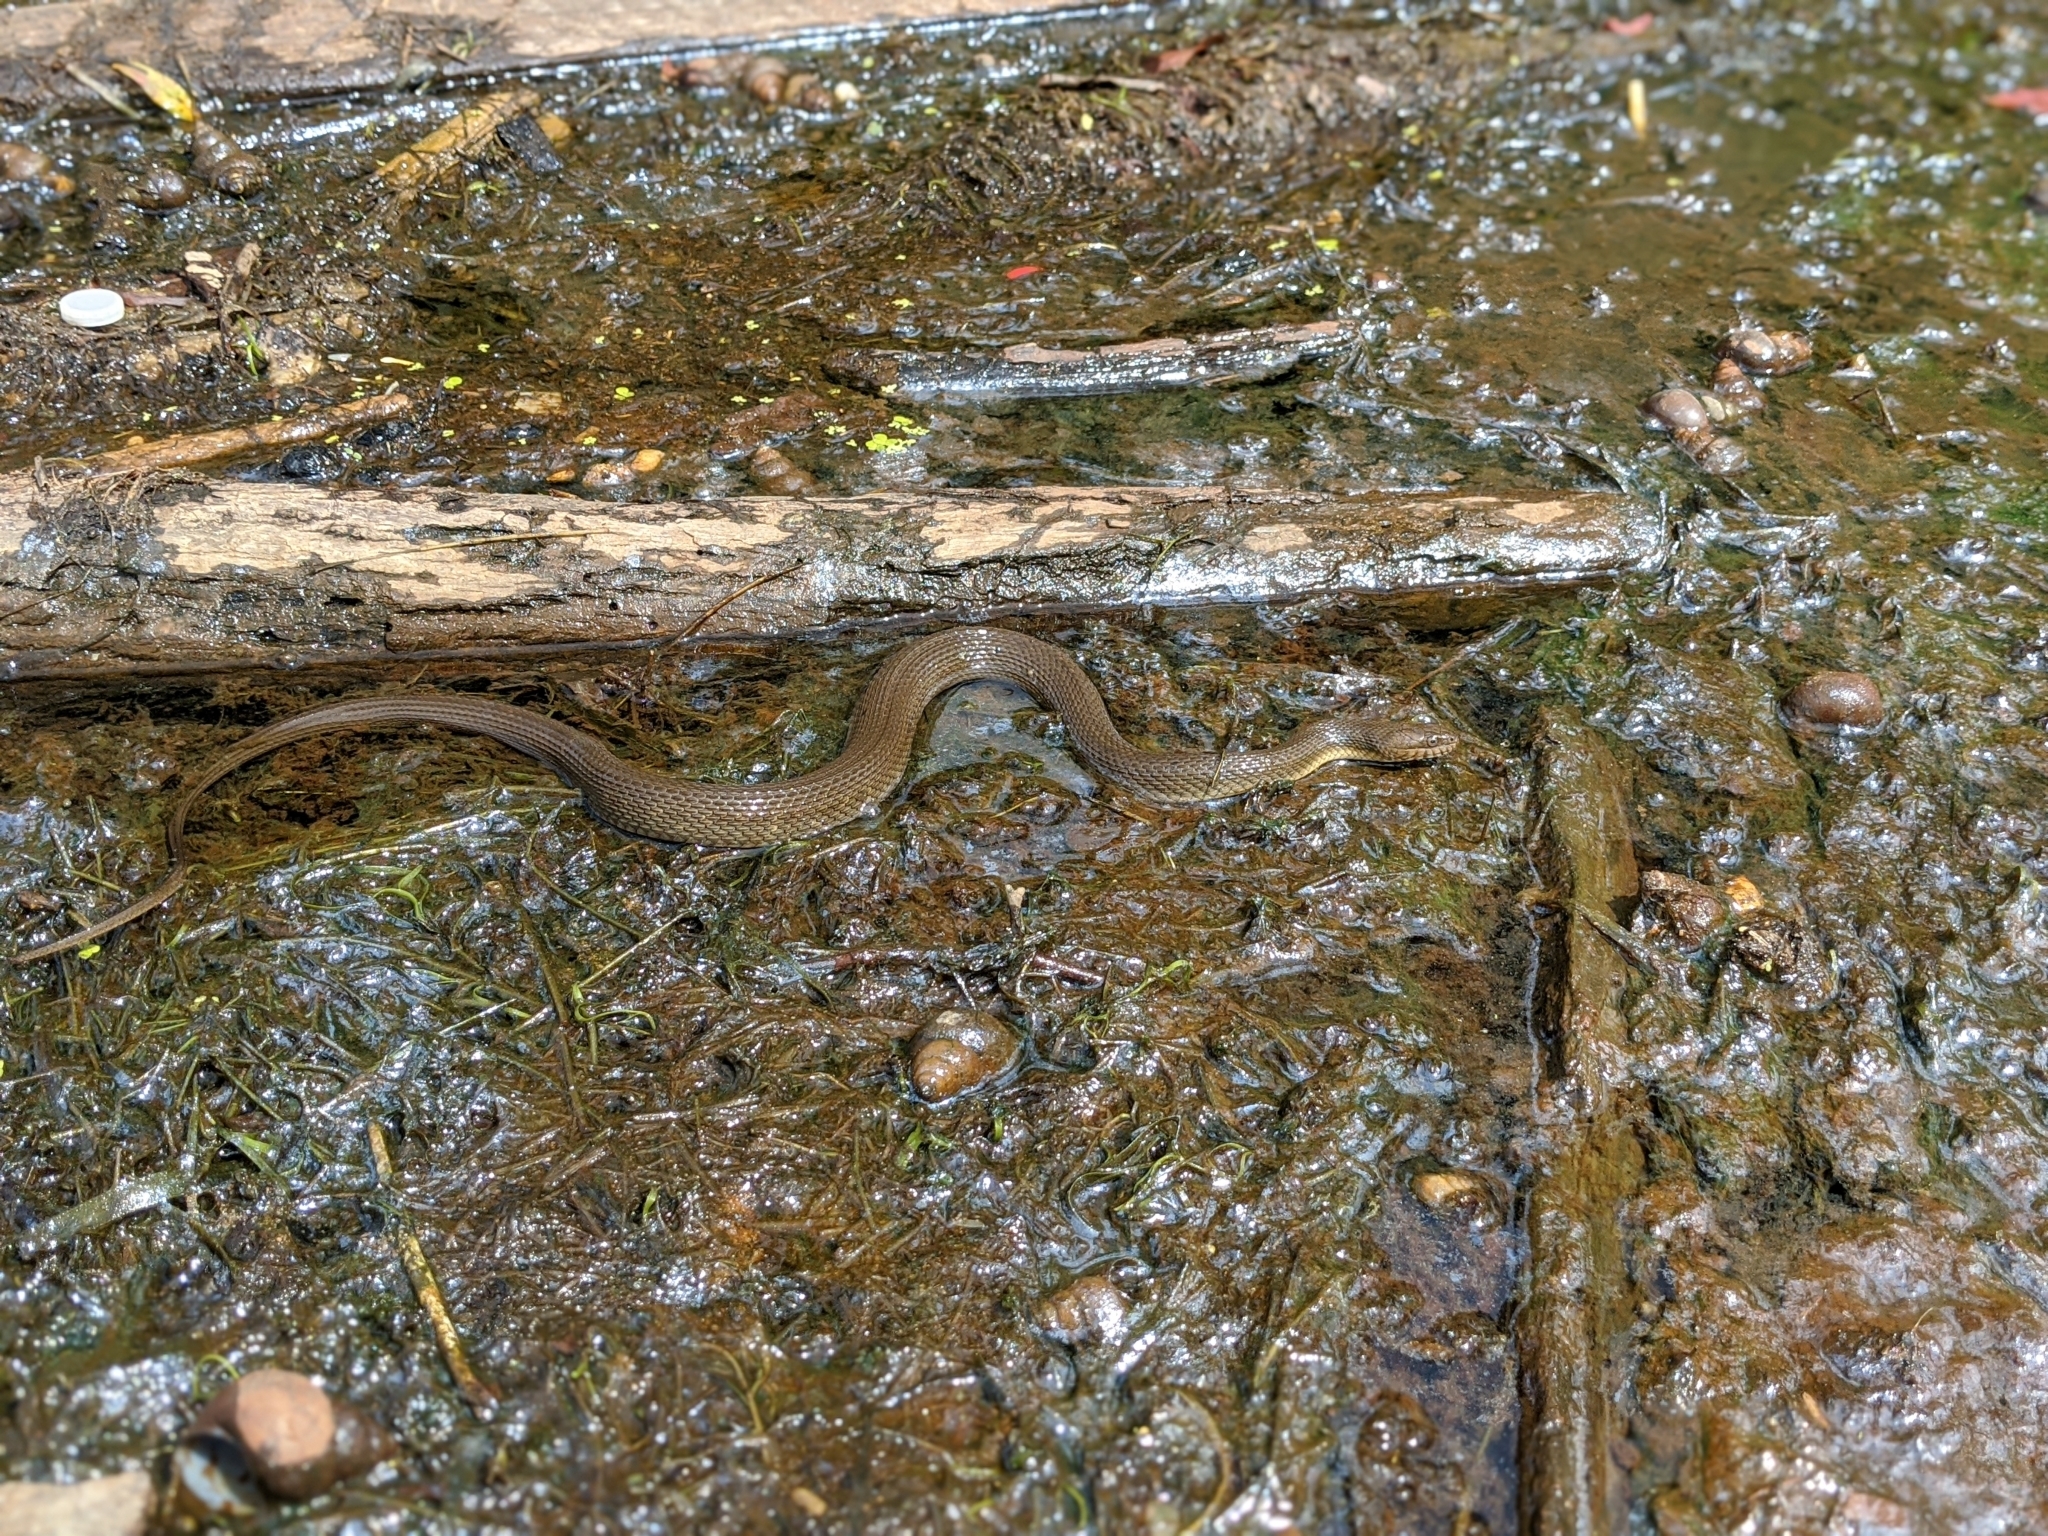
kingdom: Animalia
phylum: Chordata
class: Squamata
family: Colubridae
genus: Nerodia
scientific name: Nerodia sipedon
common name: Northern water snake
